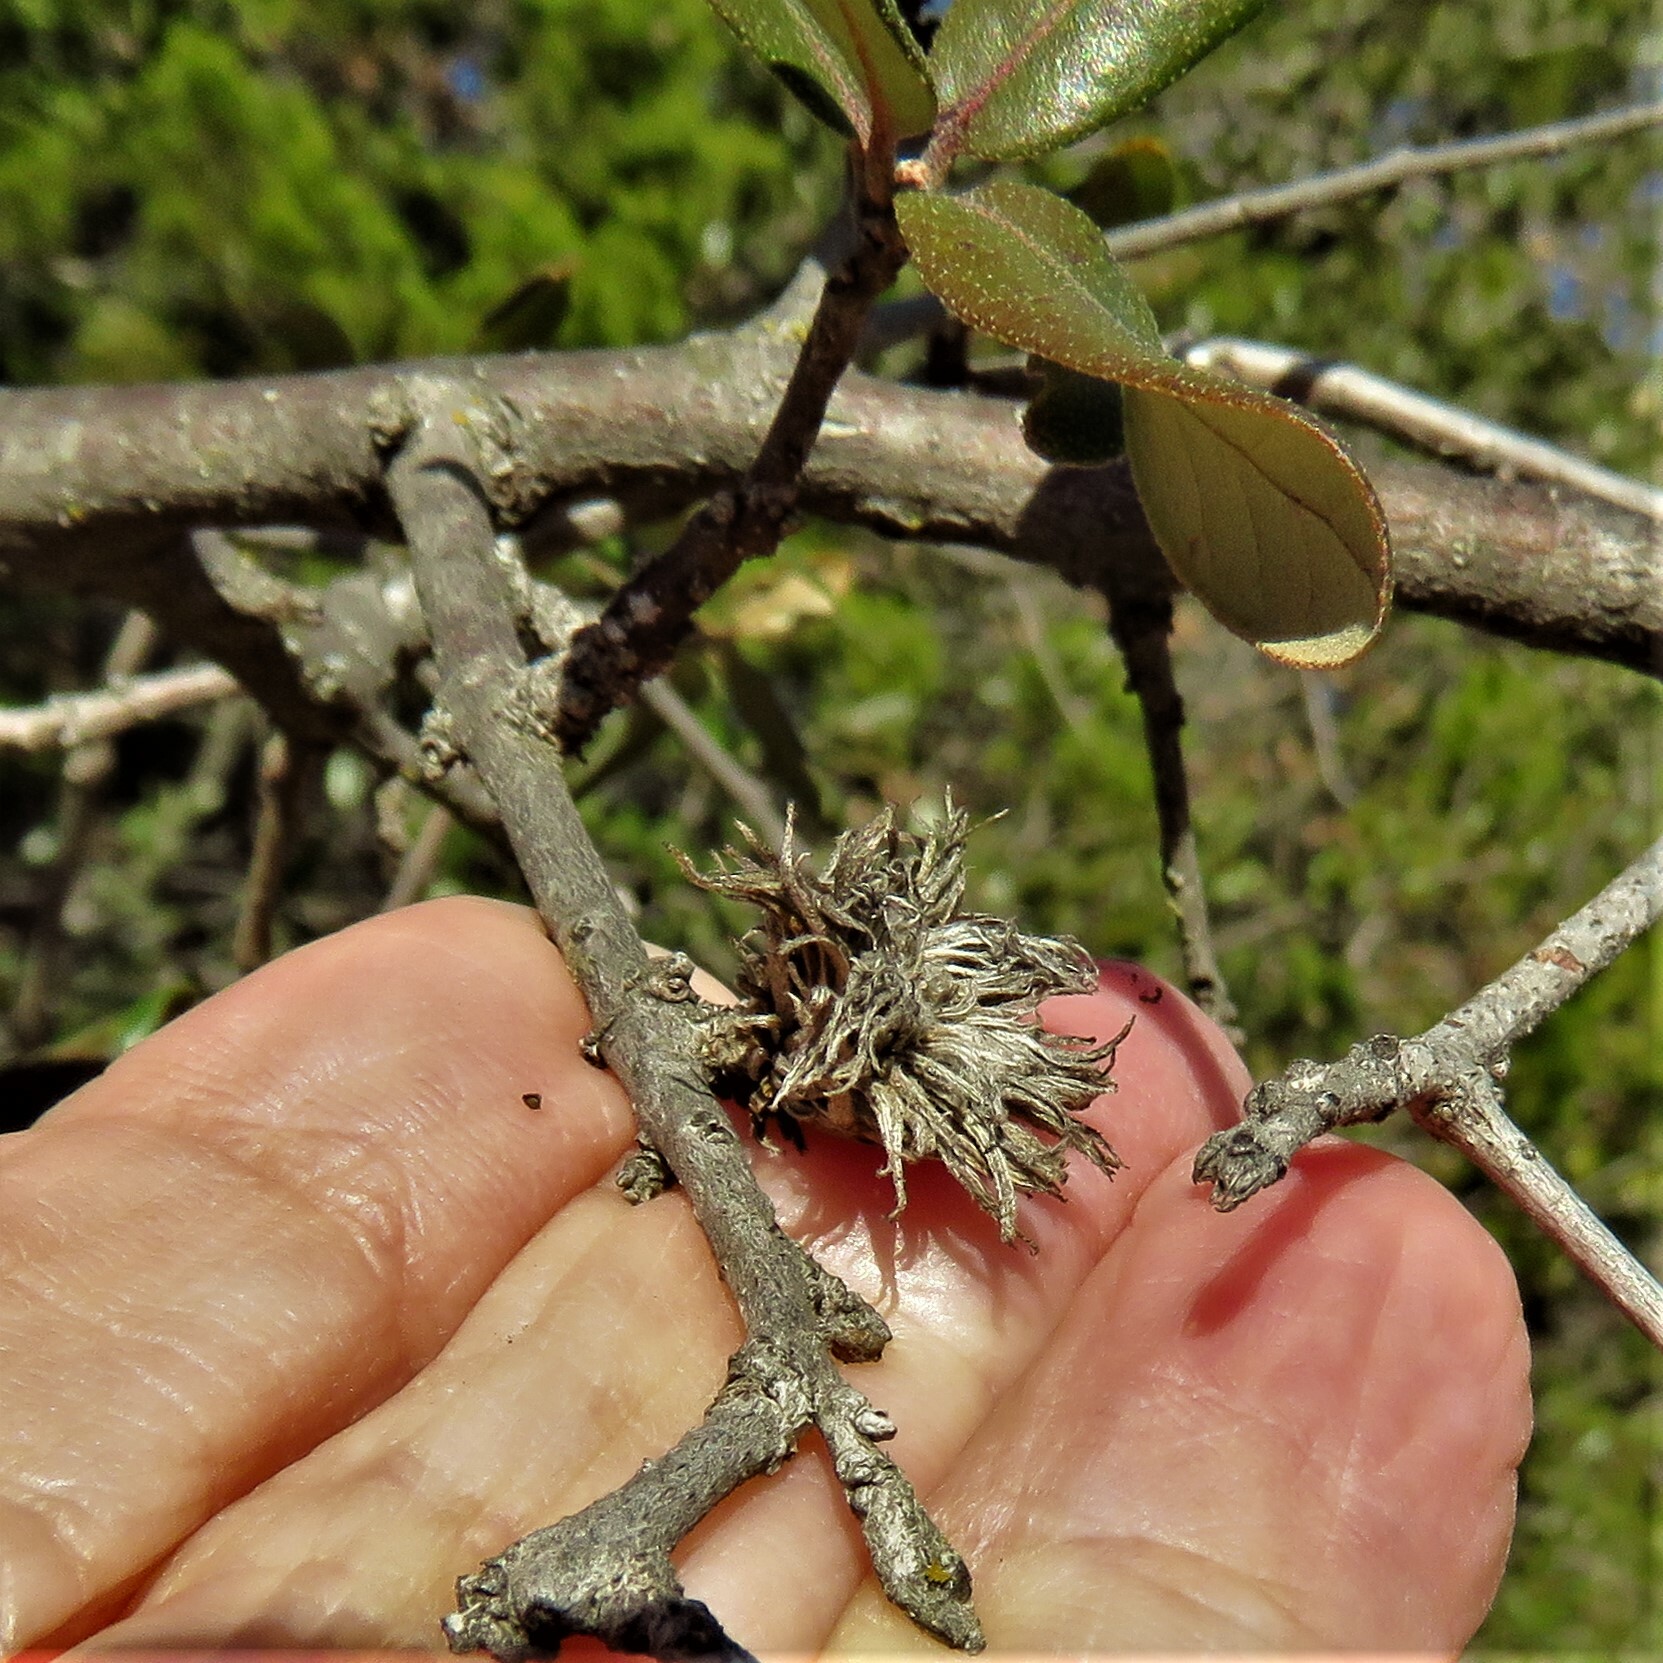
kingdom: Animalia
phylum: Arthropoda
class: Insecta
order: Hymenoptera
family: Cynipidae
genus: Andricus
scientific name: Andricus quercusfoliatus
